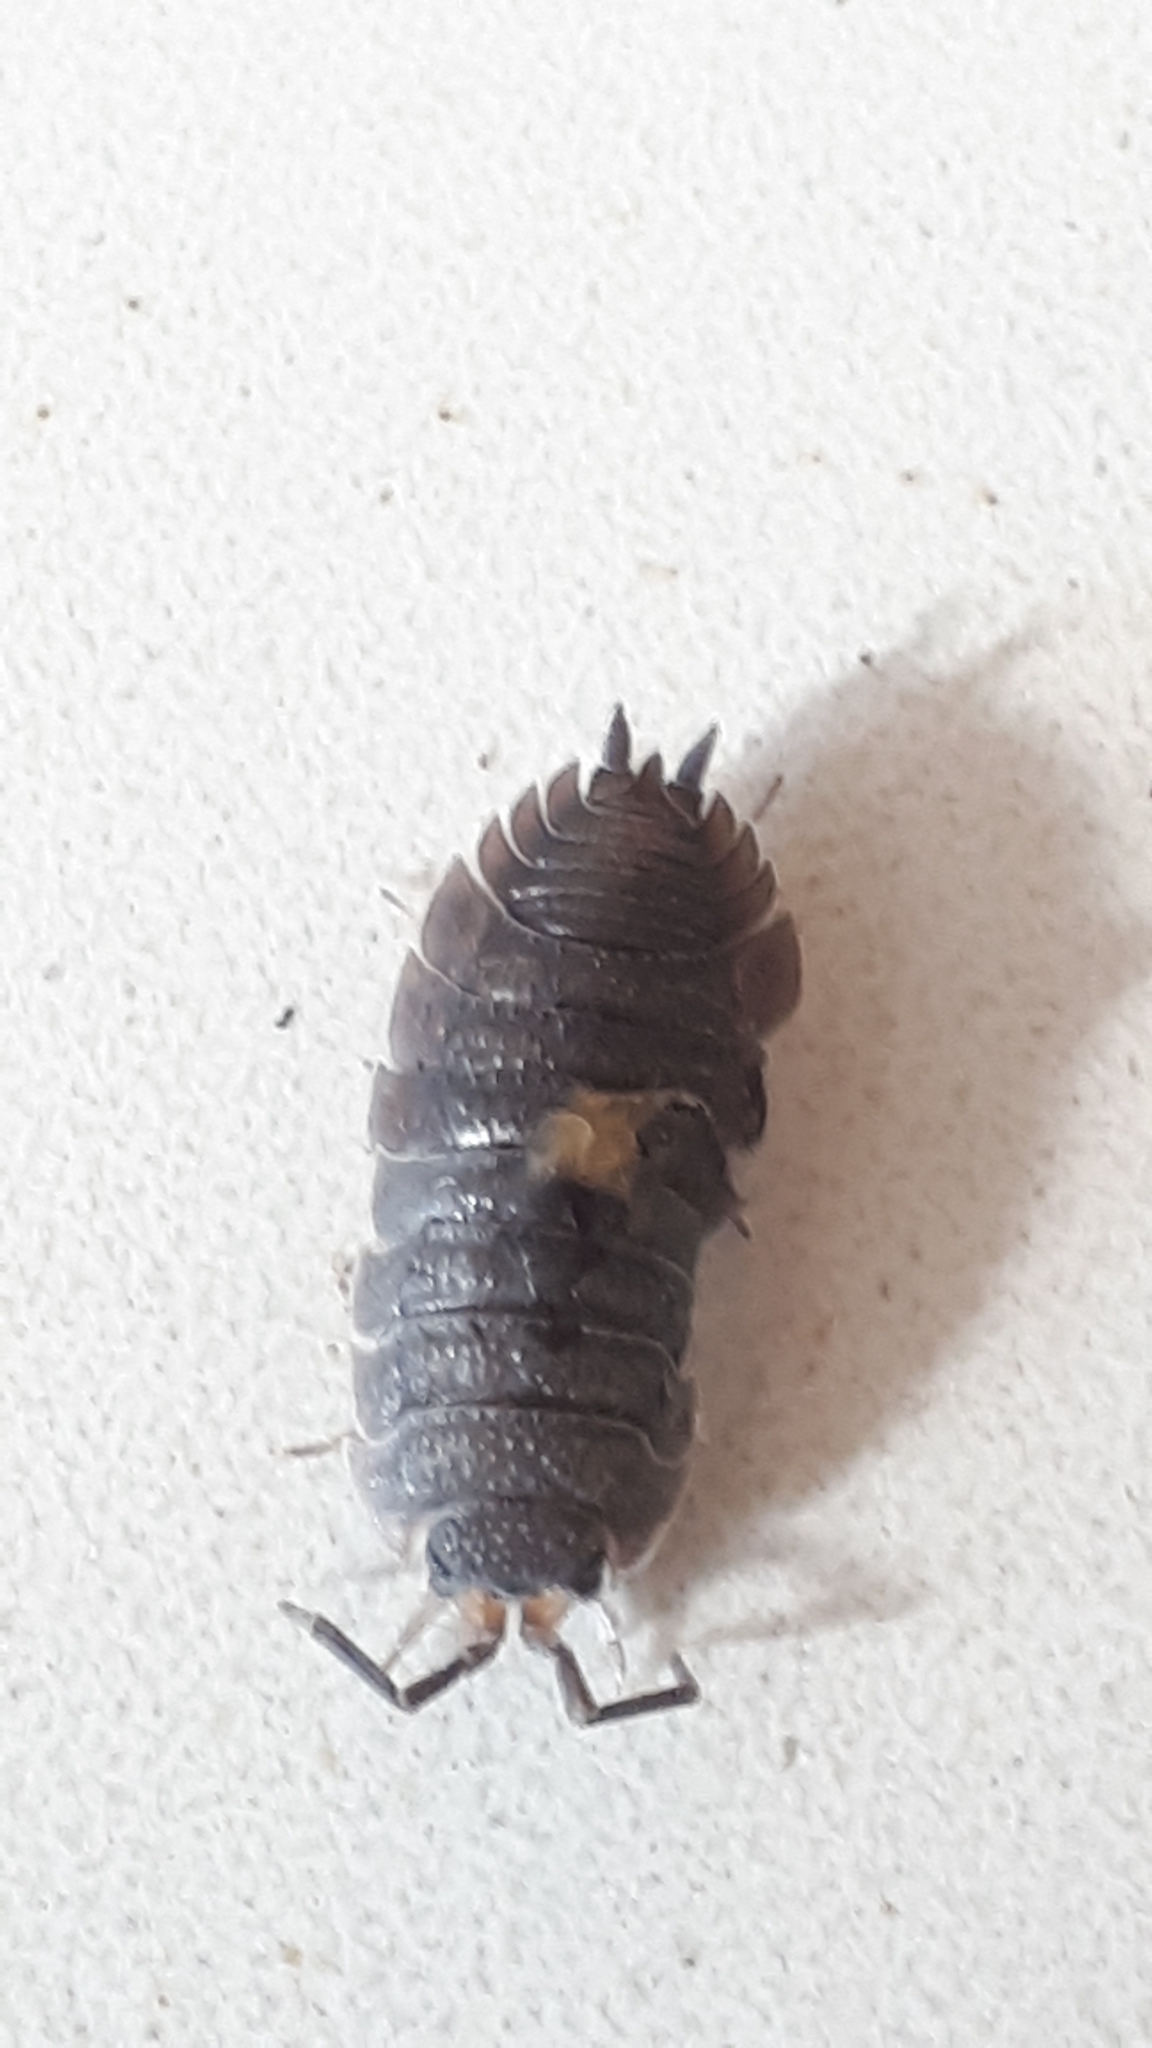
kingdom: Animalia
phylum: Arthropoda
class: Malacostraca
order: Isopoda
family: Porcellionidae
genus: Porcellio
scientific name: Porcellio scaber
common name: Common rough woodlouse
